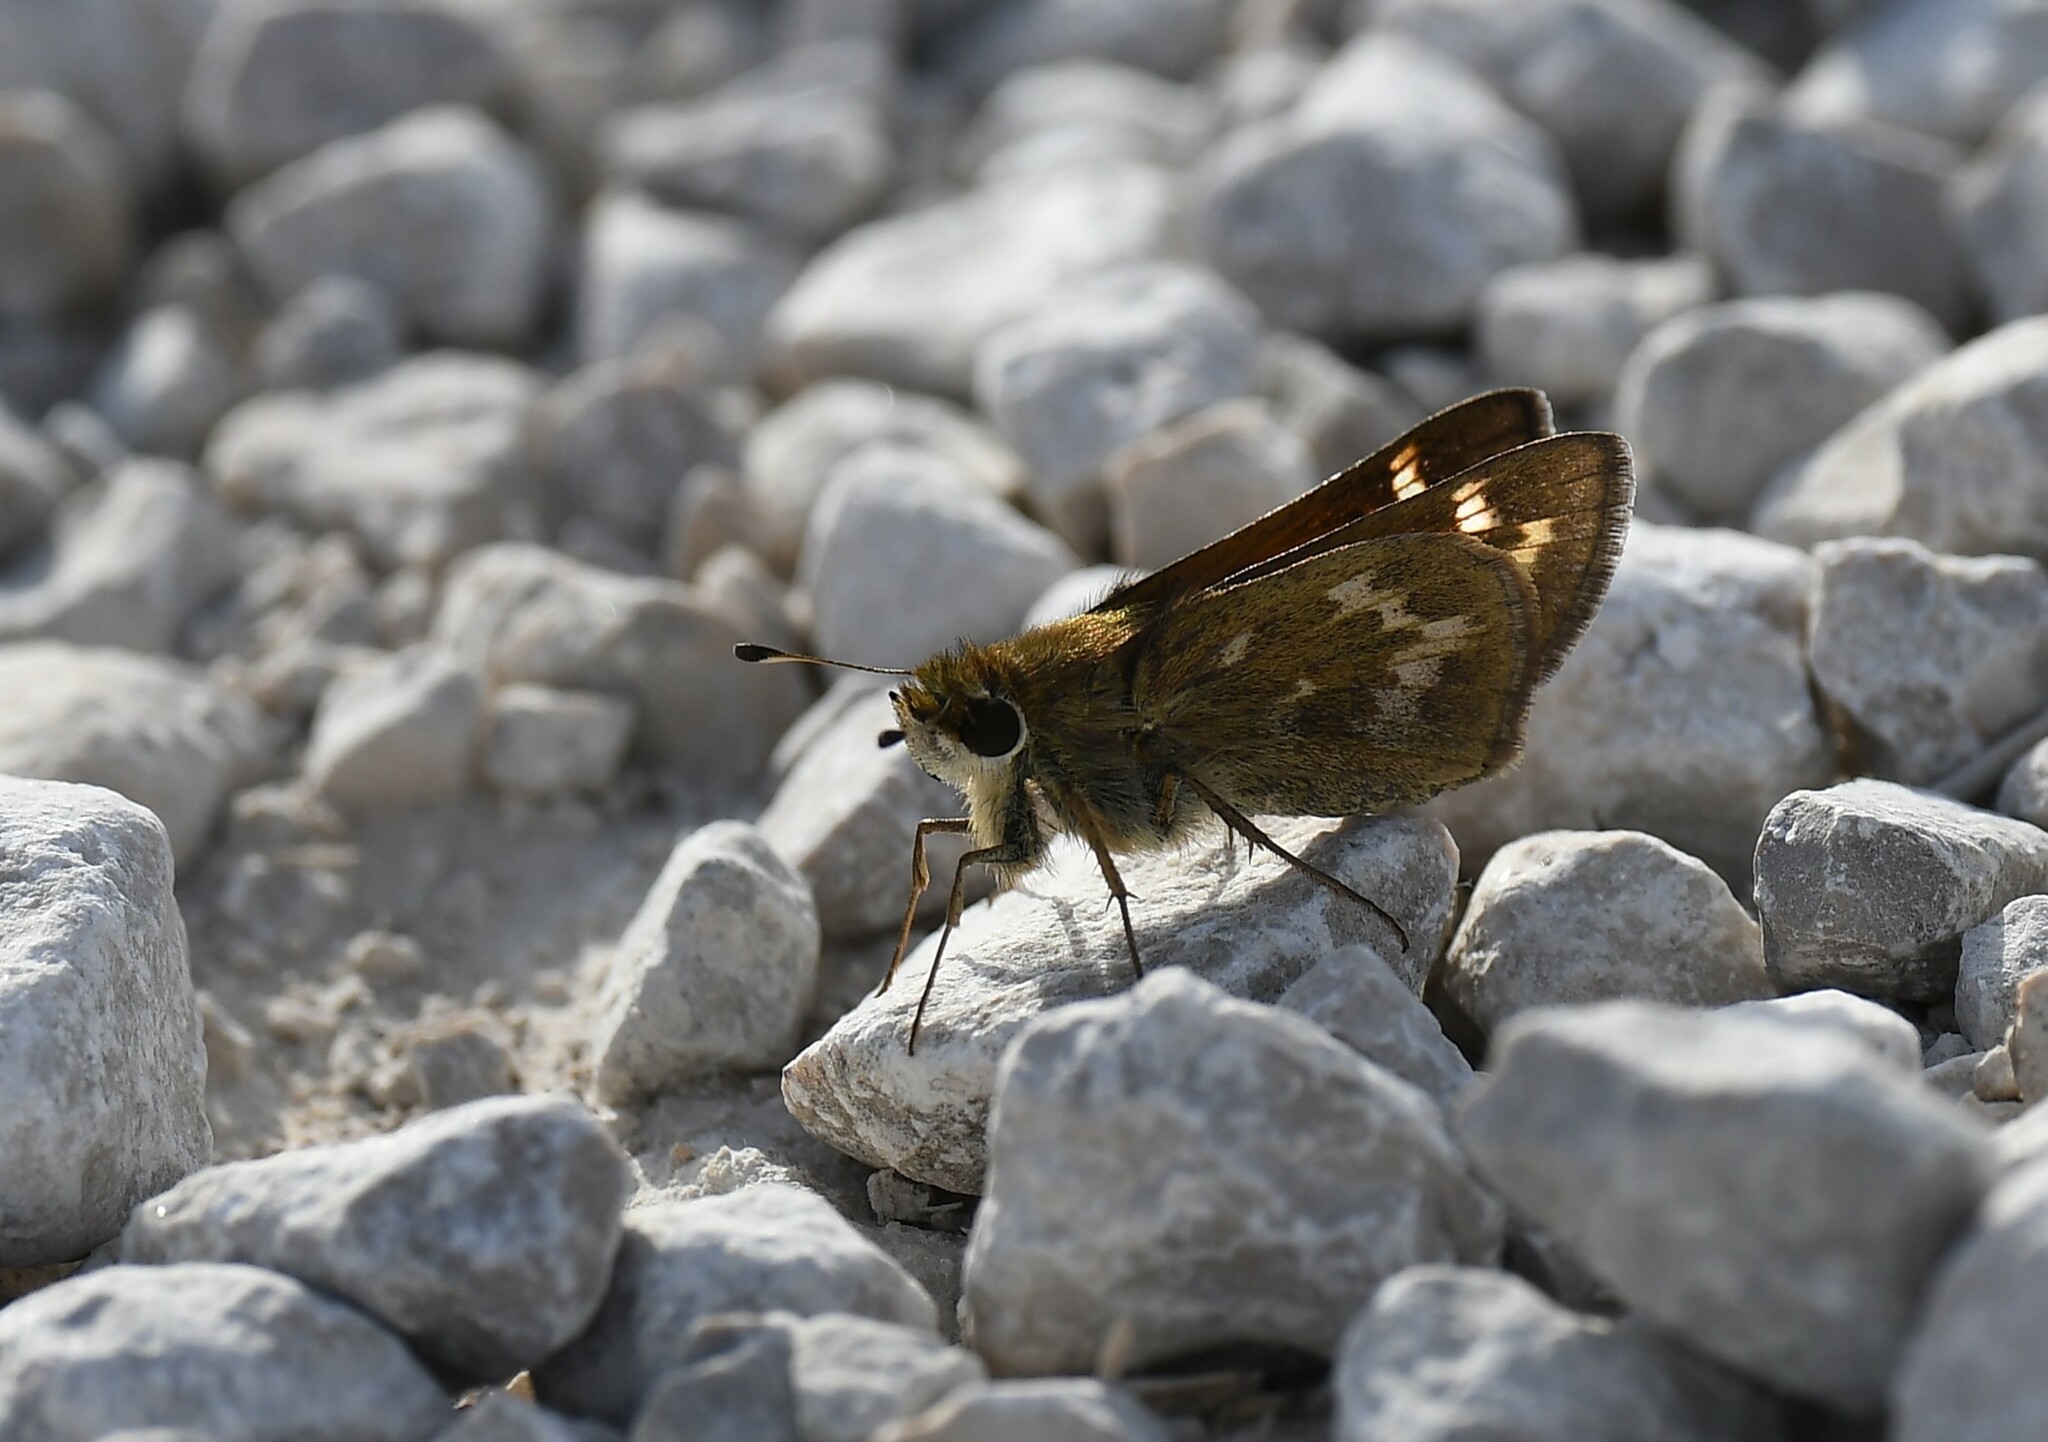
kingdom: Animalia
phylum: Arthropoda
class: Insecta
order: Lepidoptera
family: Hesperiidae
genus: Atalopedes
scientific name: Atalopedes
